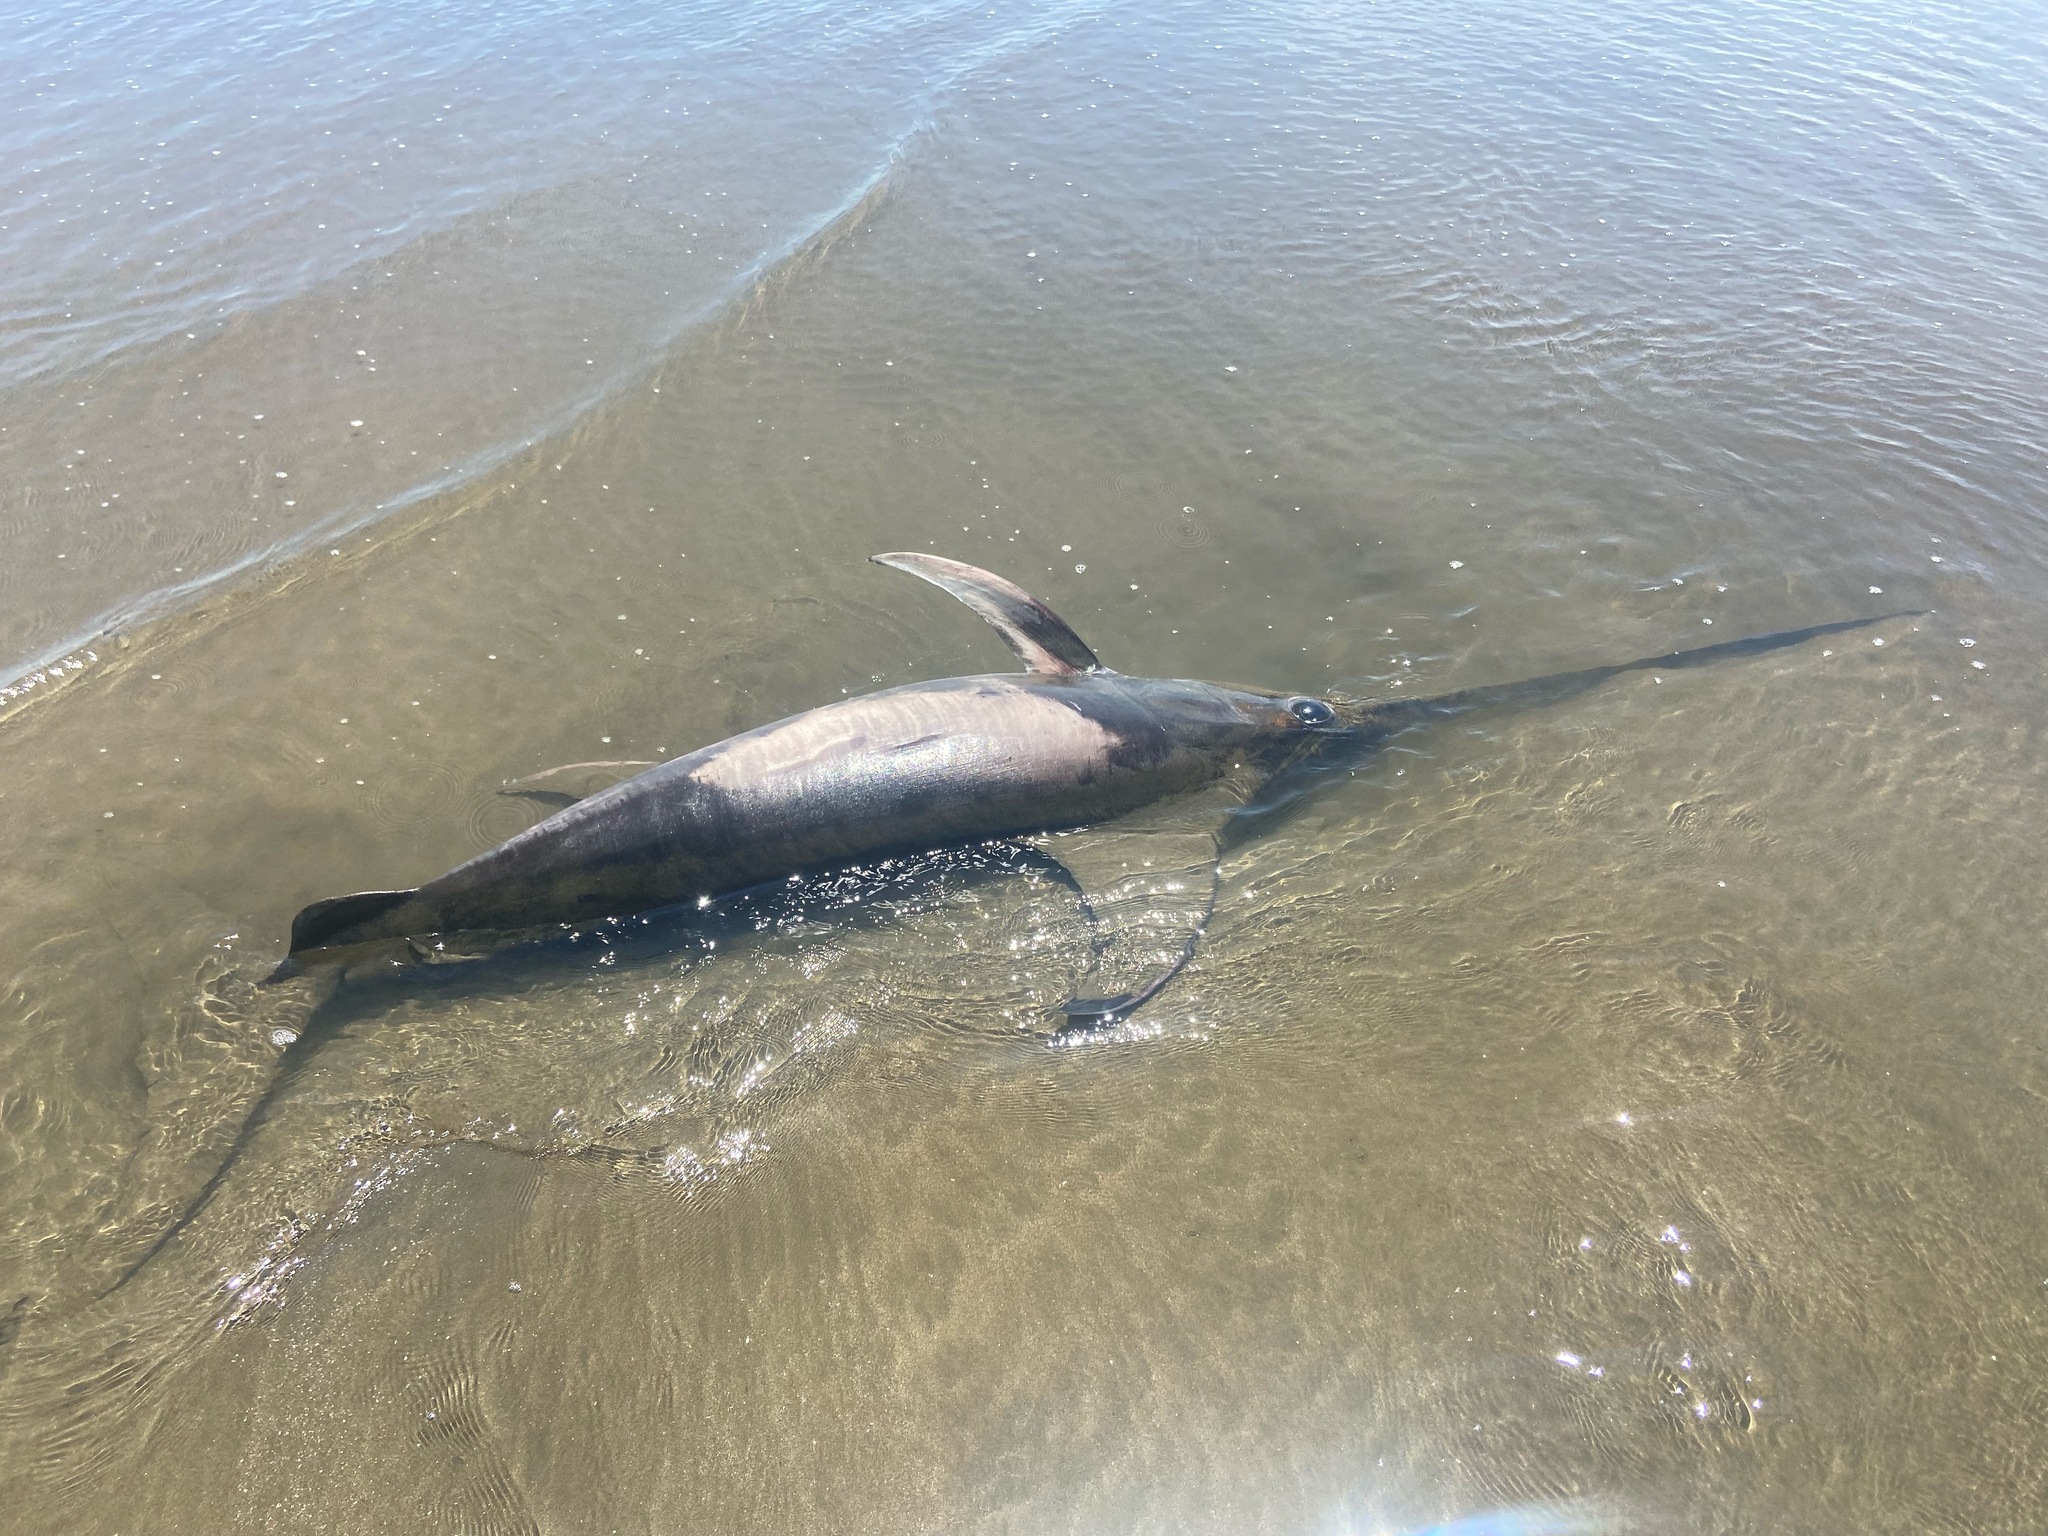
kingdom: Animalia
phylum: Chordata
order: Perciformes
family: Xiphiidae
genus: Xiphias
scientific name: Xiphias gladius
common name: Swordfish
